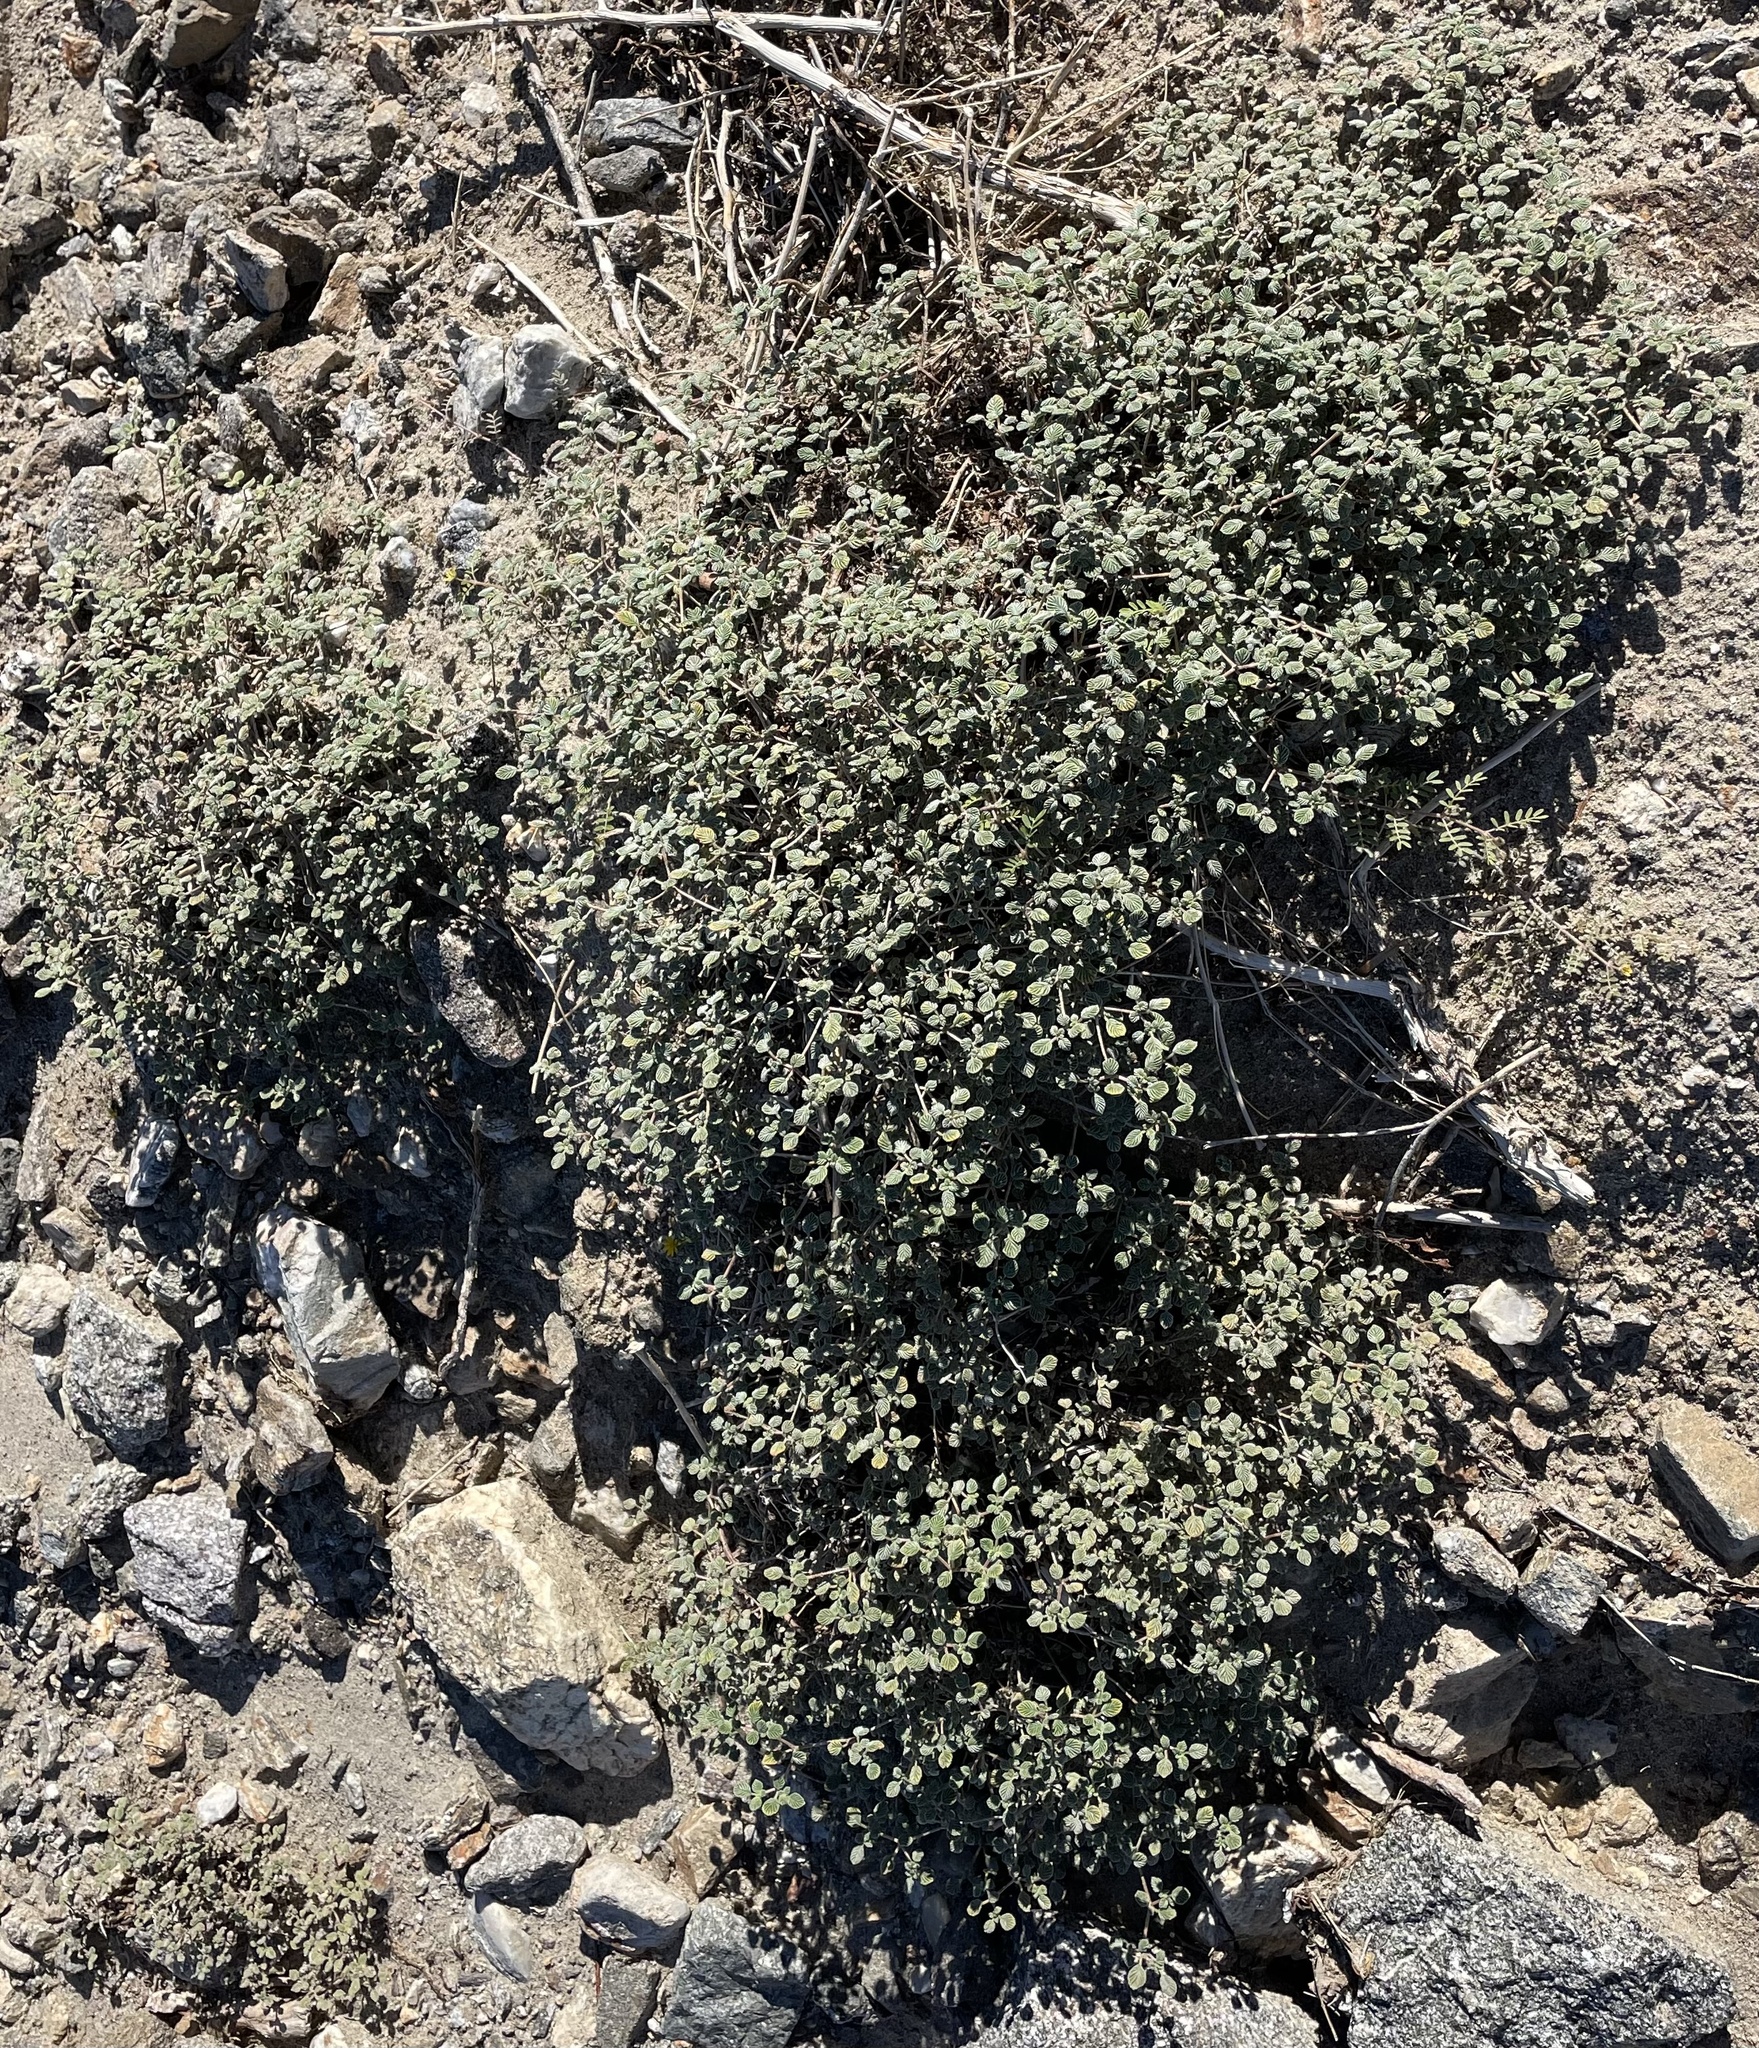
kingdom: Plantae
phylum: Tracheophyta
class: Magnoliopsida
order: Boraginales
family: Ehretiaceae
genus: Tiquilia
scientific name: Tiquilia plicata
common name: Fan-leaf tiquilia
